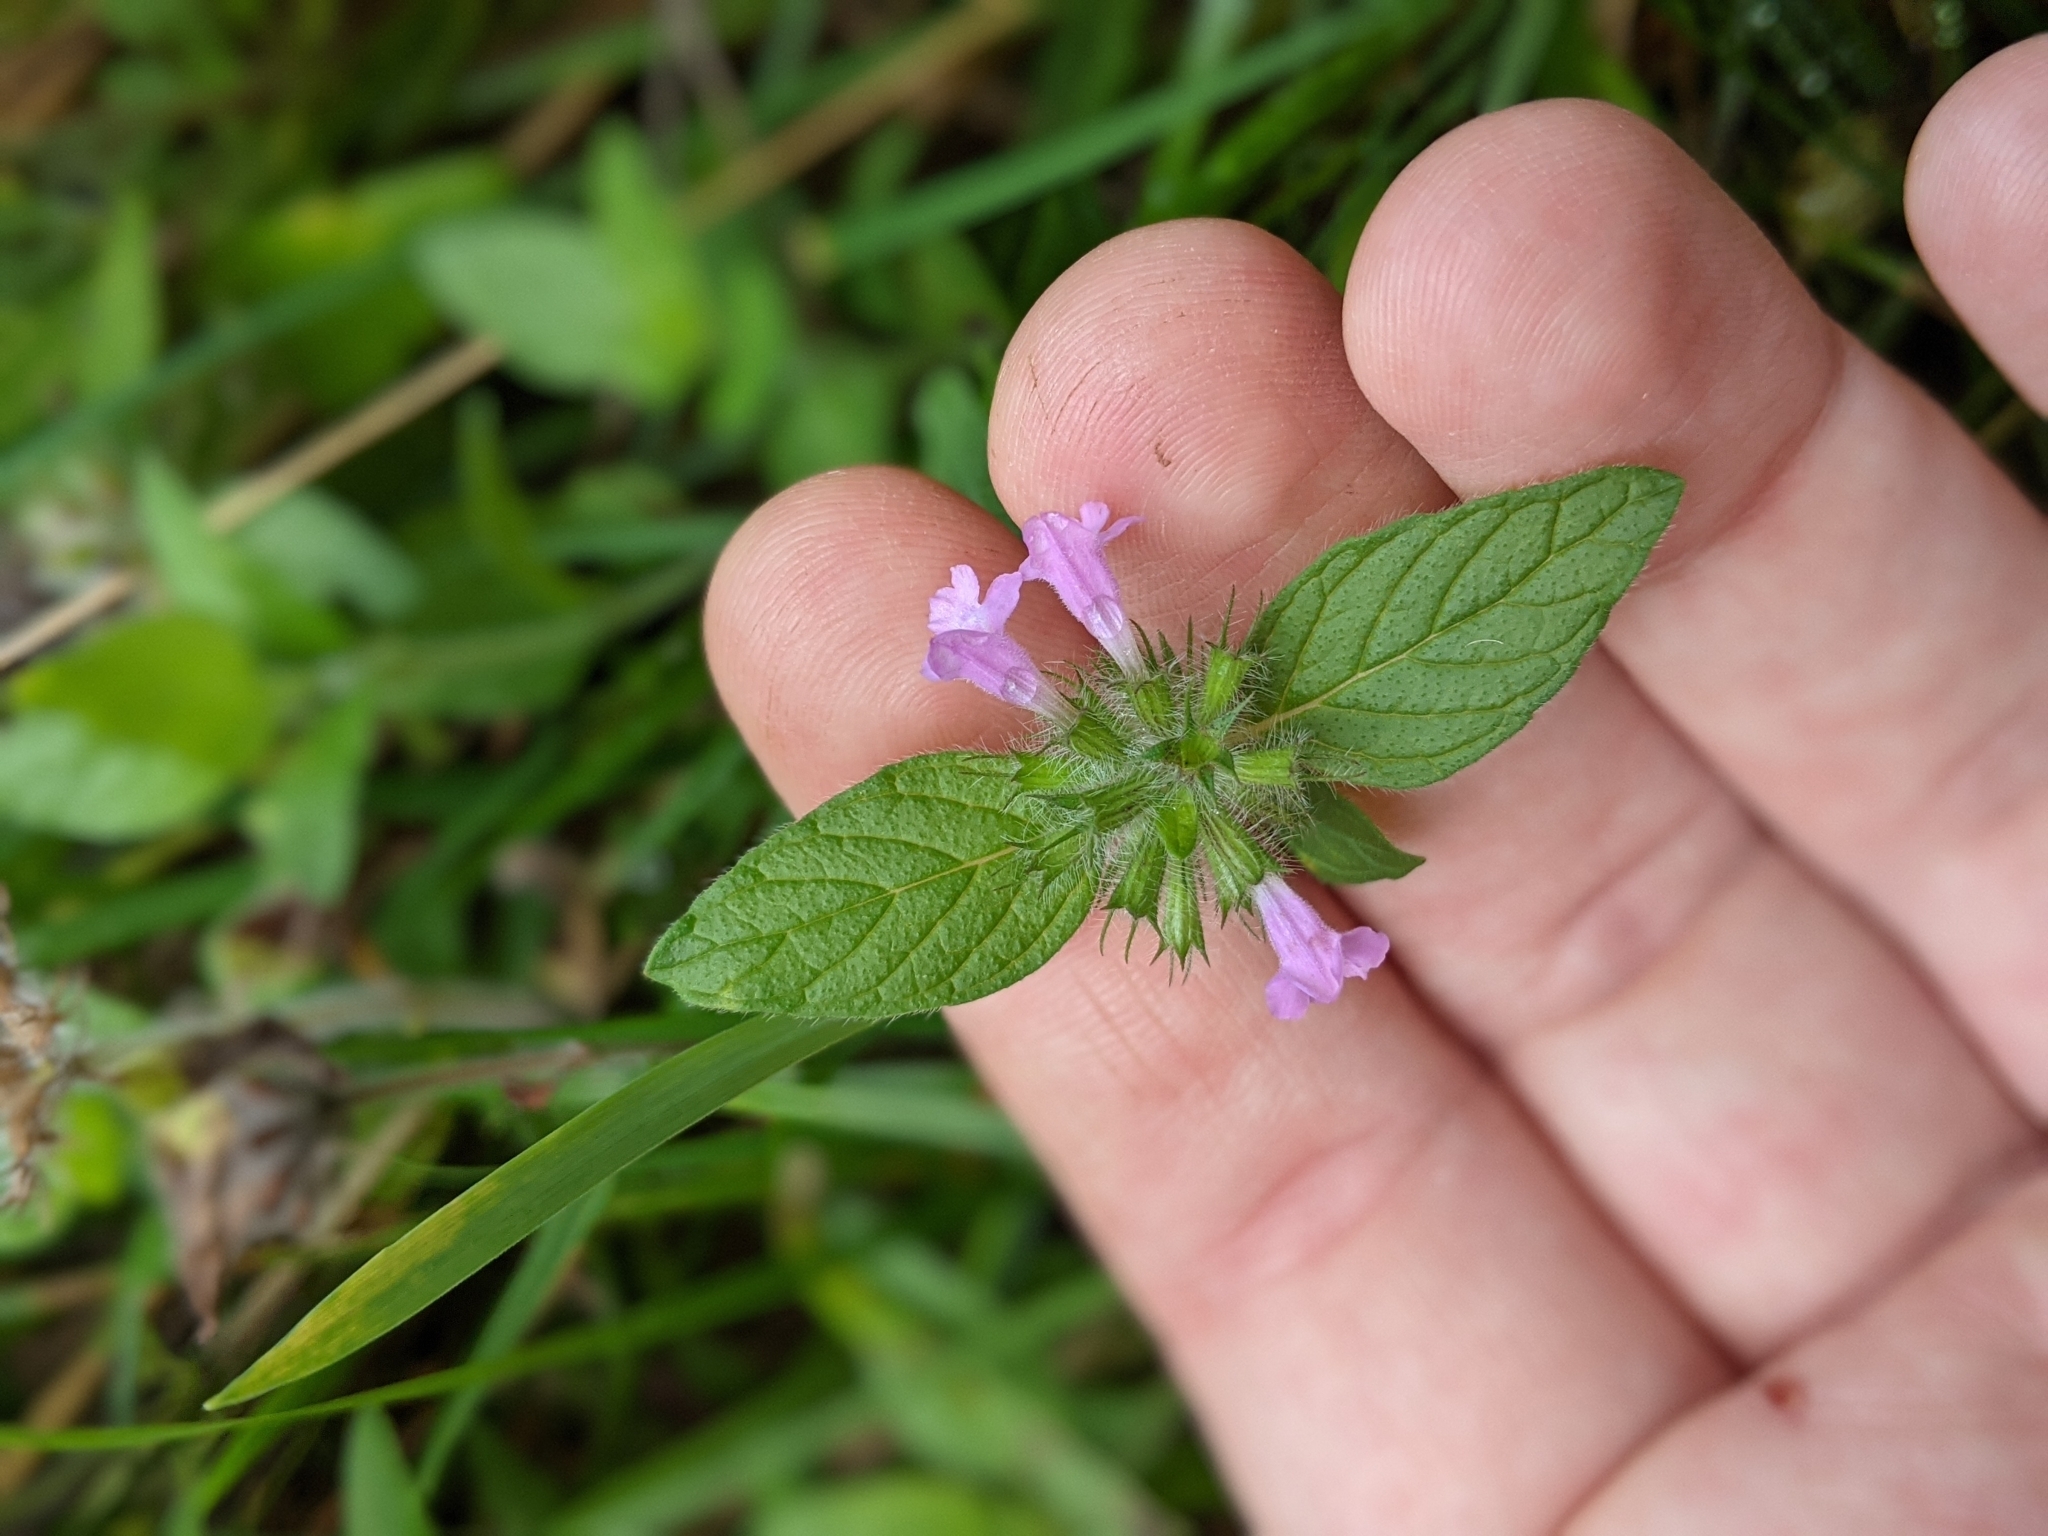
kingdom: Plantae
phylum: Tracheophyta
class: Magnoliopsida
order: Lamiales
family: Lamiaceae
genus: Clinopodium
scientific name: Clinopodium vulgare
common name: Wild basil
